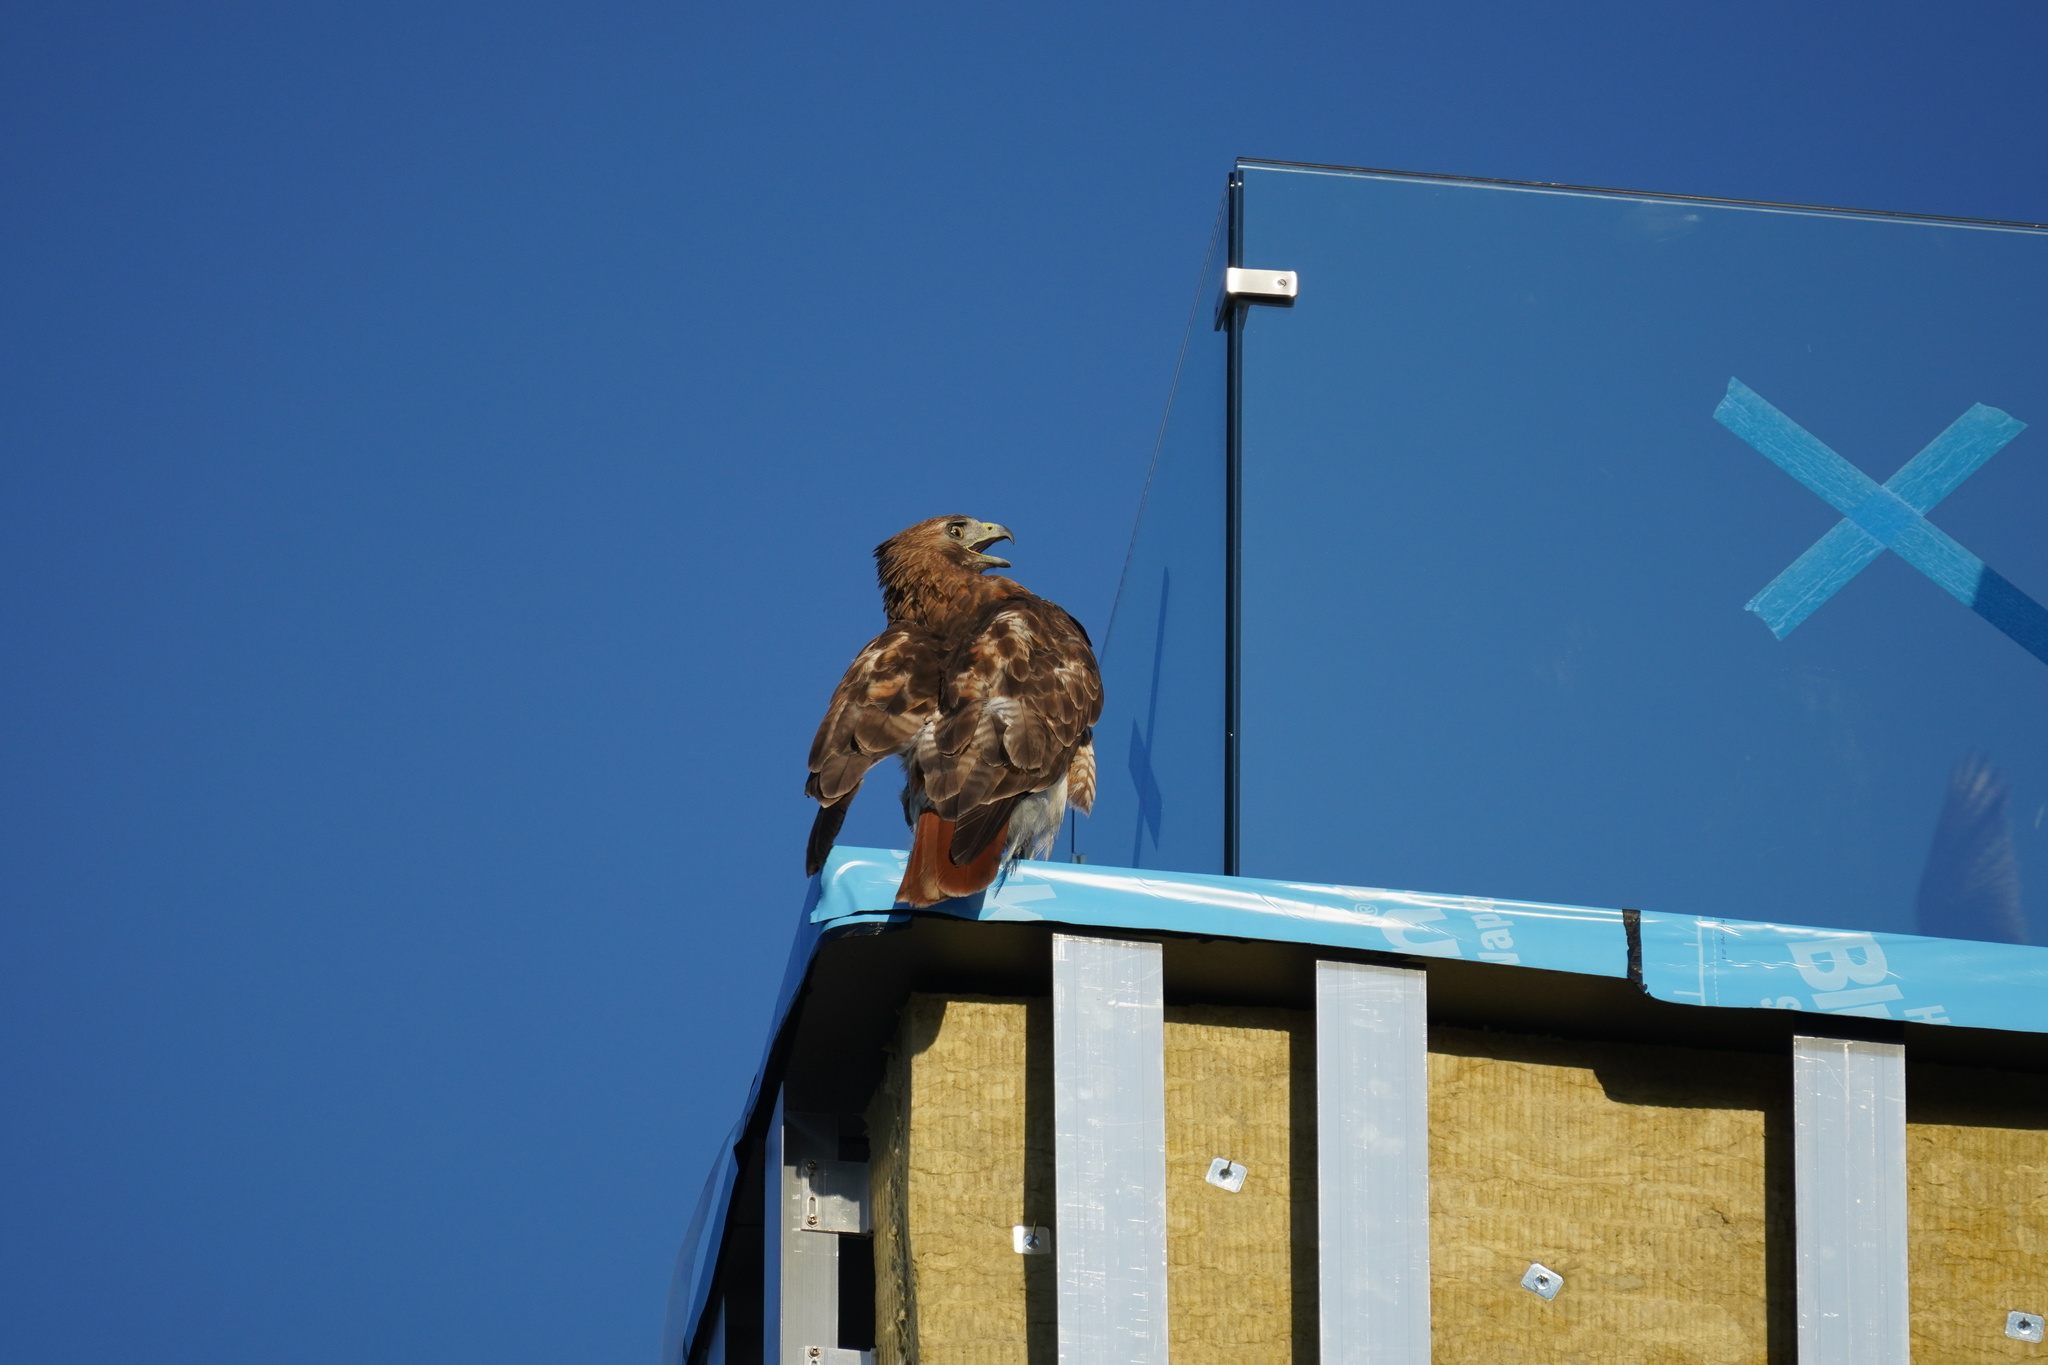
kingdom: Animalia
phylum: Chordata
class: Aves
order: Accipitriformes
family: Accipitridae
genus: Buteo
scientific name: Buteo jamaicensis
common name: Red-tailed hawk
